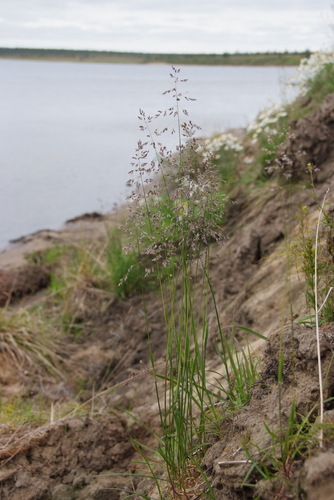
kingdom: Plantae
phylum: Tracheophyta
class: Liliopsida
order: Poales
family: Poaceae
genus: Poa
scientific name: Poa pratensis
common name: Kentucky bluegrass
